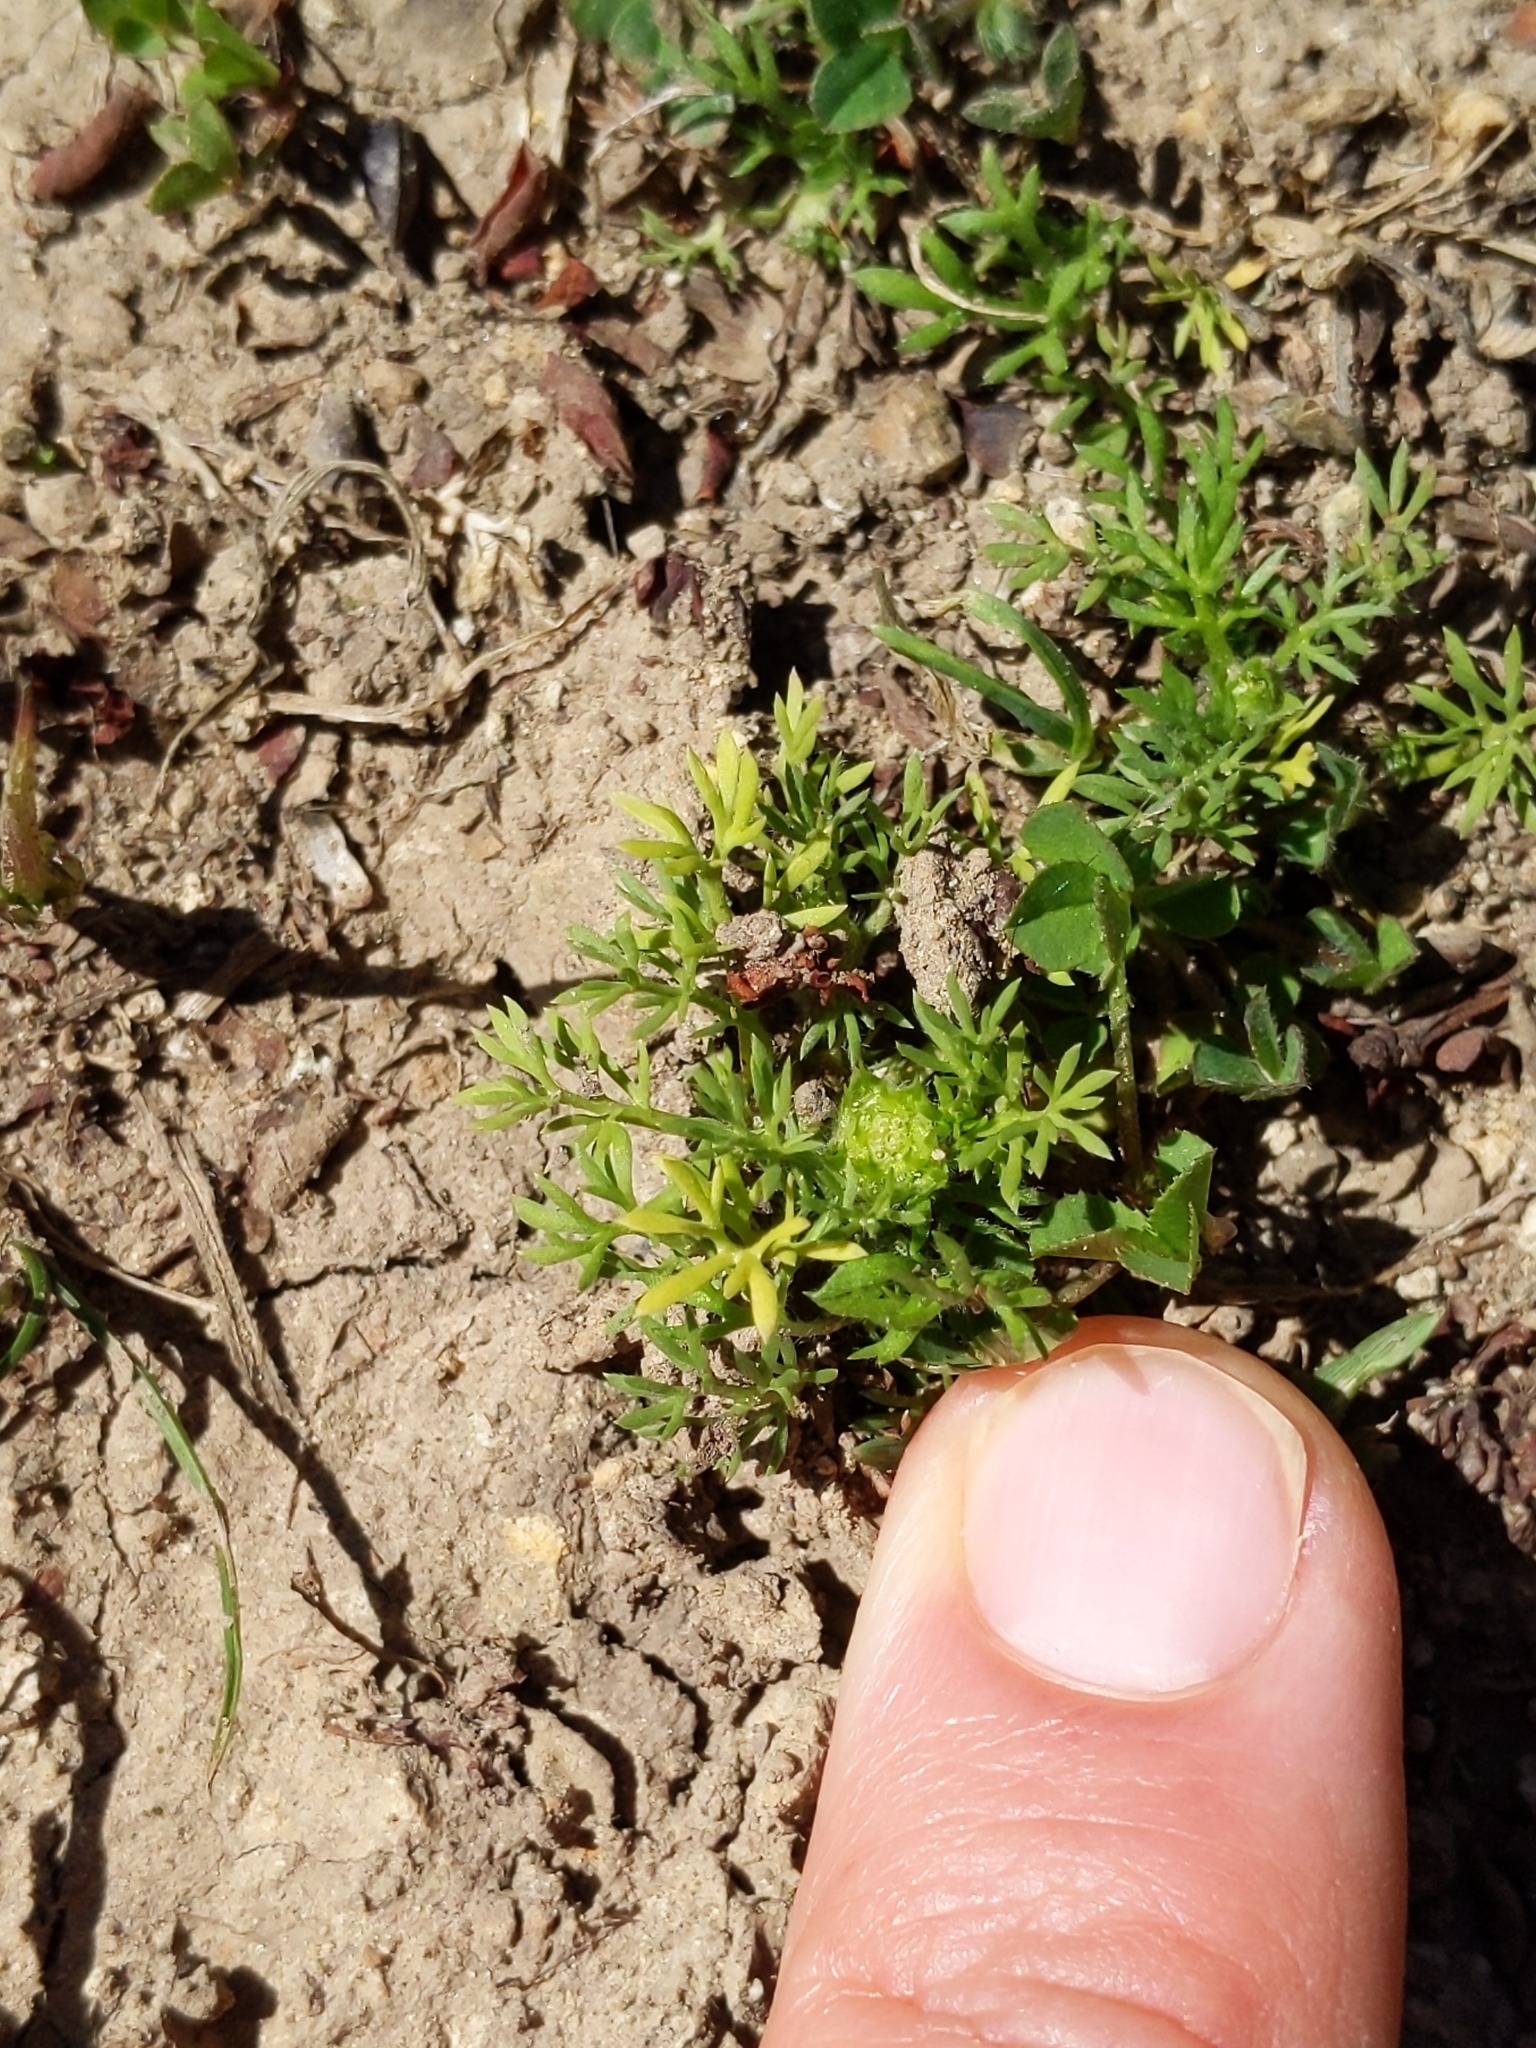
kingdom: Plantae
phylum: Tracheophyta
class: Magnoliopsida
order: Asterales
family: Asteraceae
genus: Soliva
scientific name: Soliva sessilis
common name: Field burrweed
